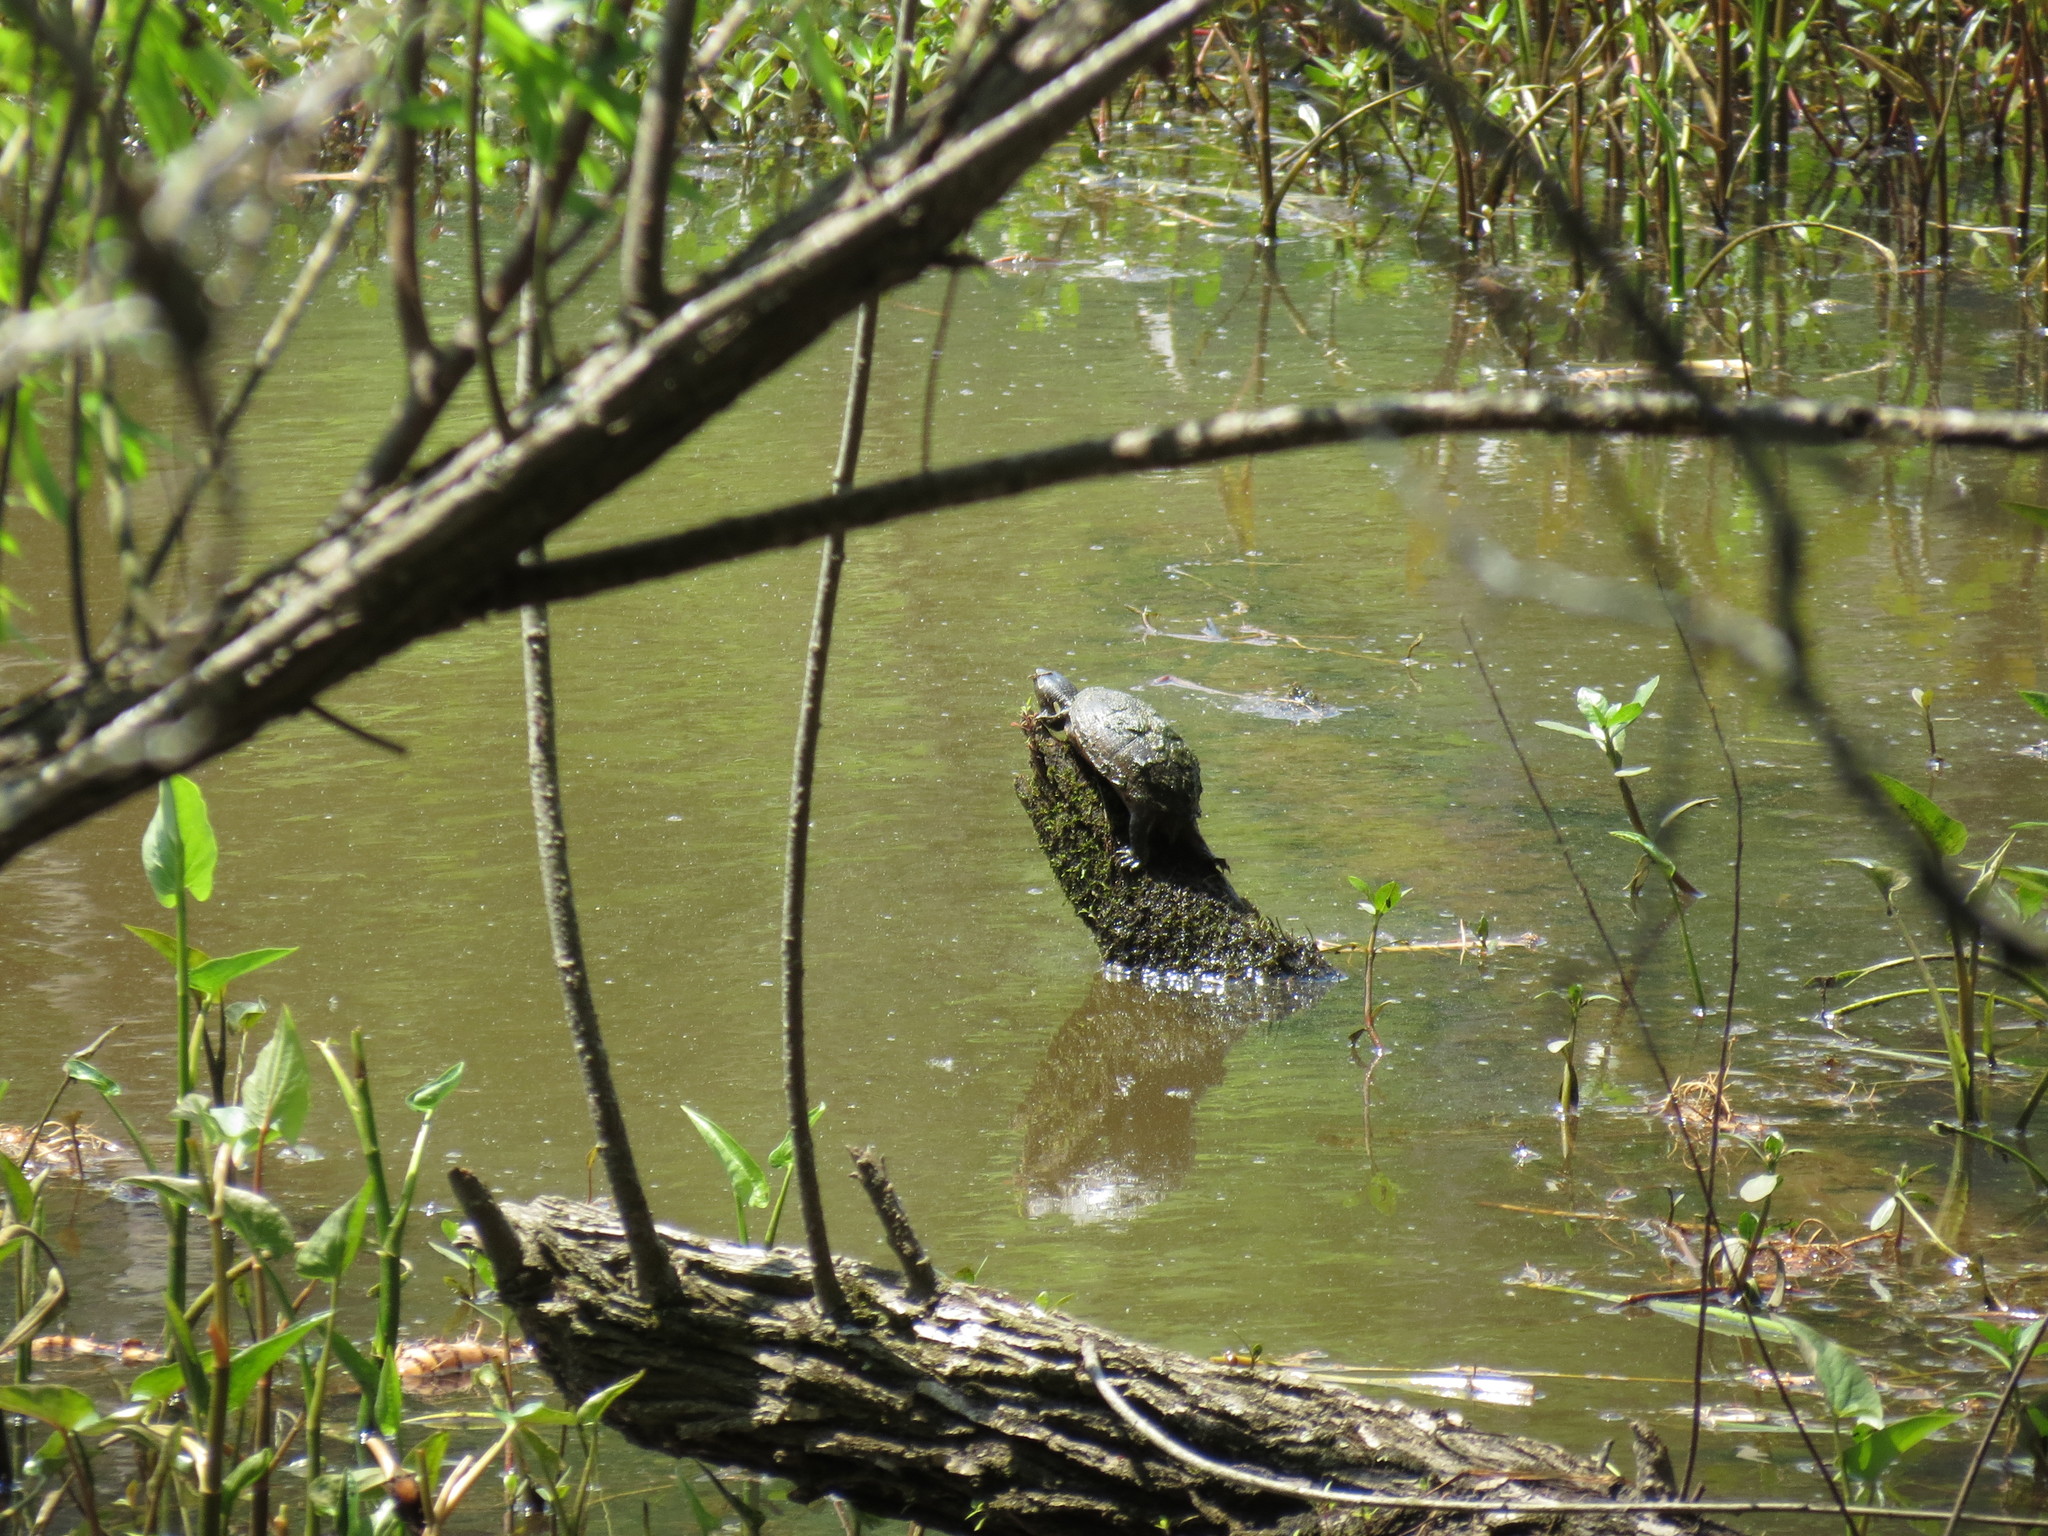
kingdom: Animalia
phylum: Chordata
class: Testudines
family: Kinosternidae
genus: Sternotherus
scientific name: Sternotherus odoratus
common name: Common musk turtle
